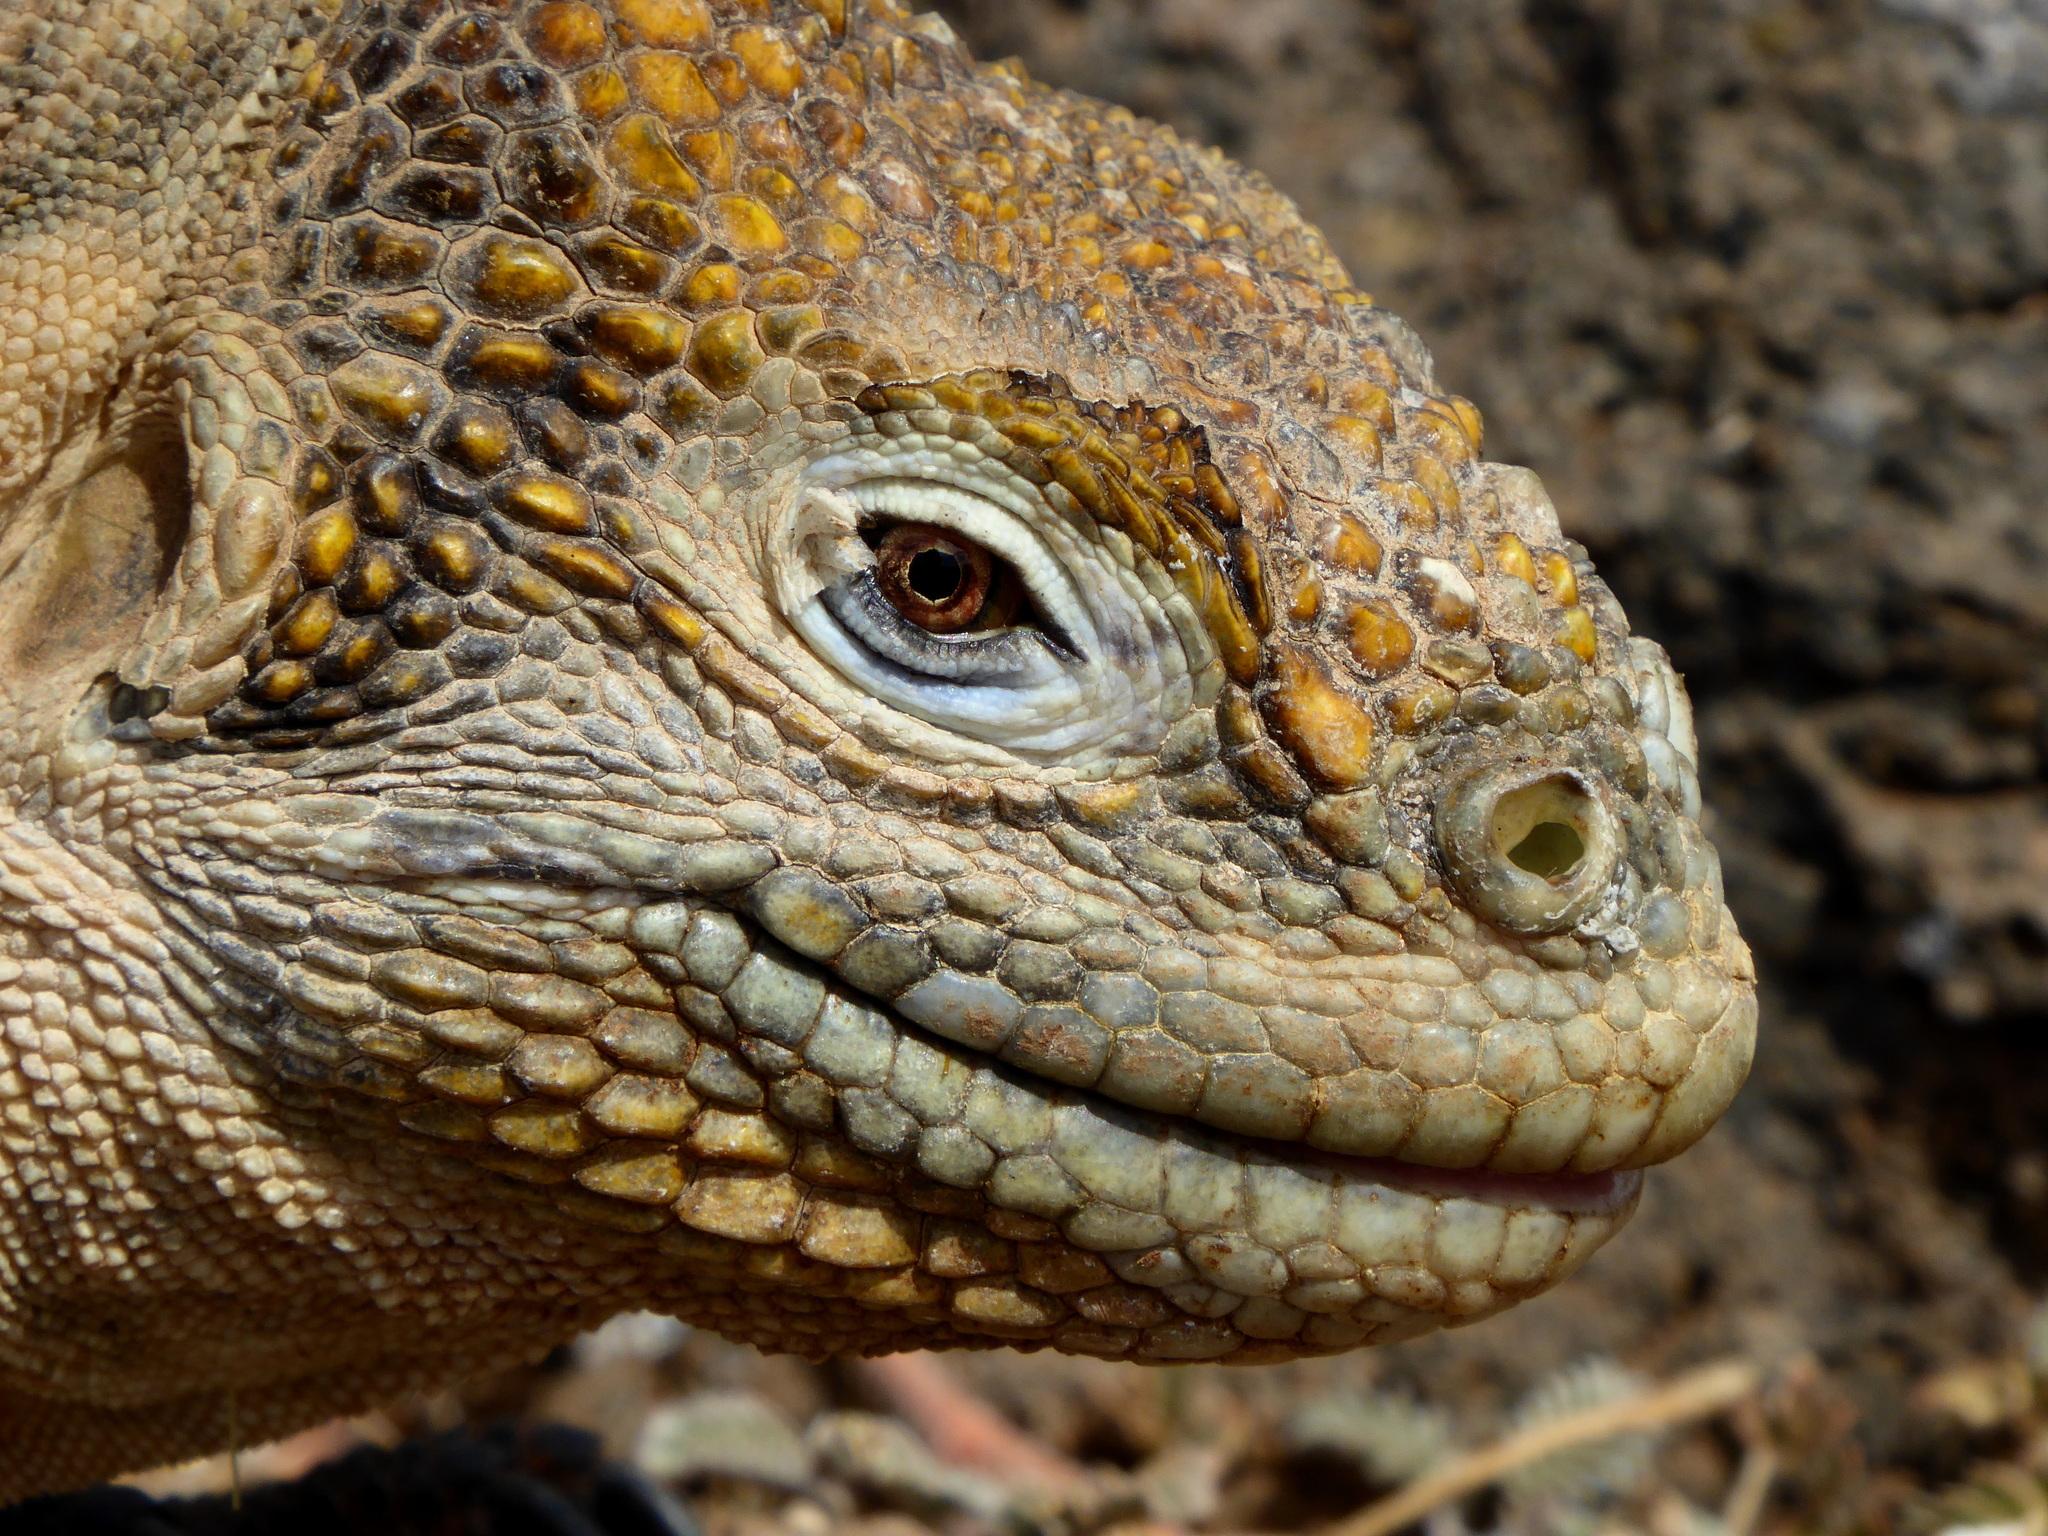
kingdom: Animalia
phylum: Chordata
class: Squamata
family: Iguanidae
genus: Conolophus
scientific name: Conolophus subcristatus
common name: Galapagos land iguana
